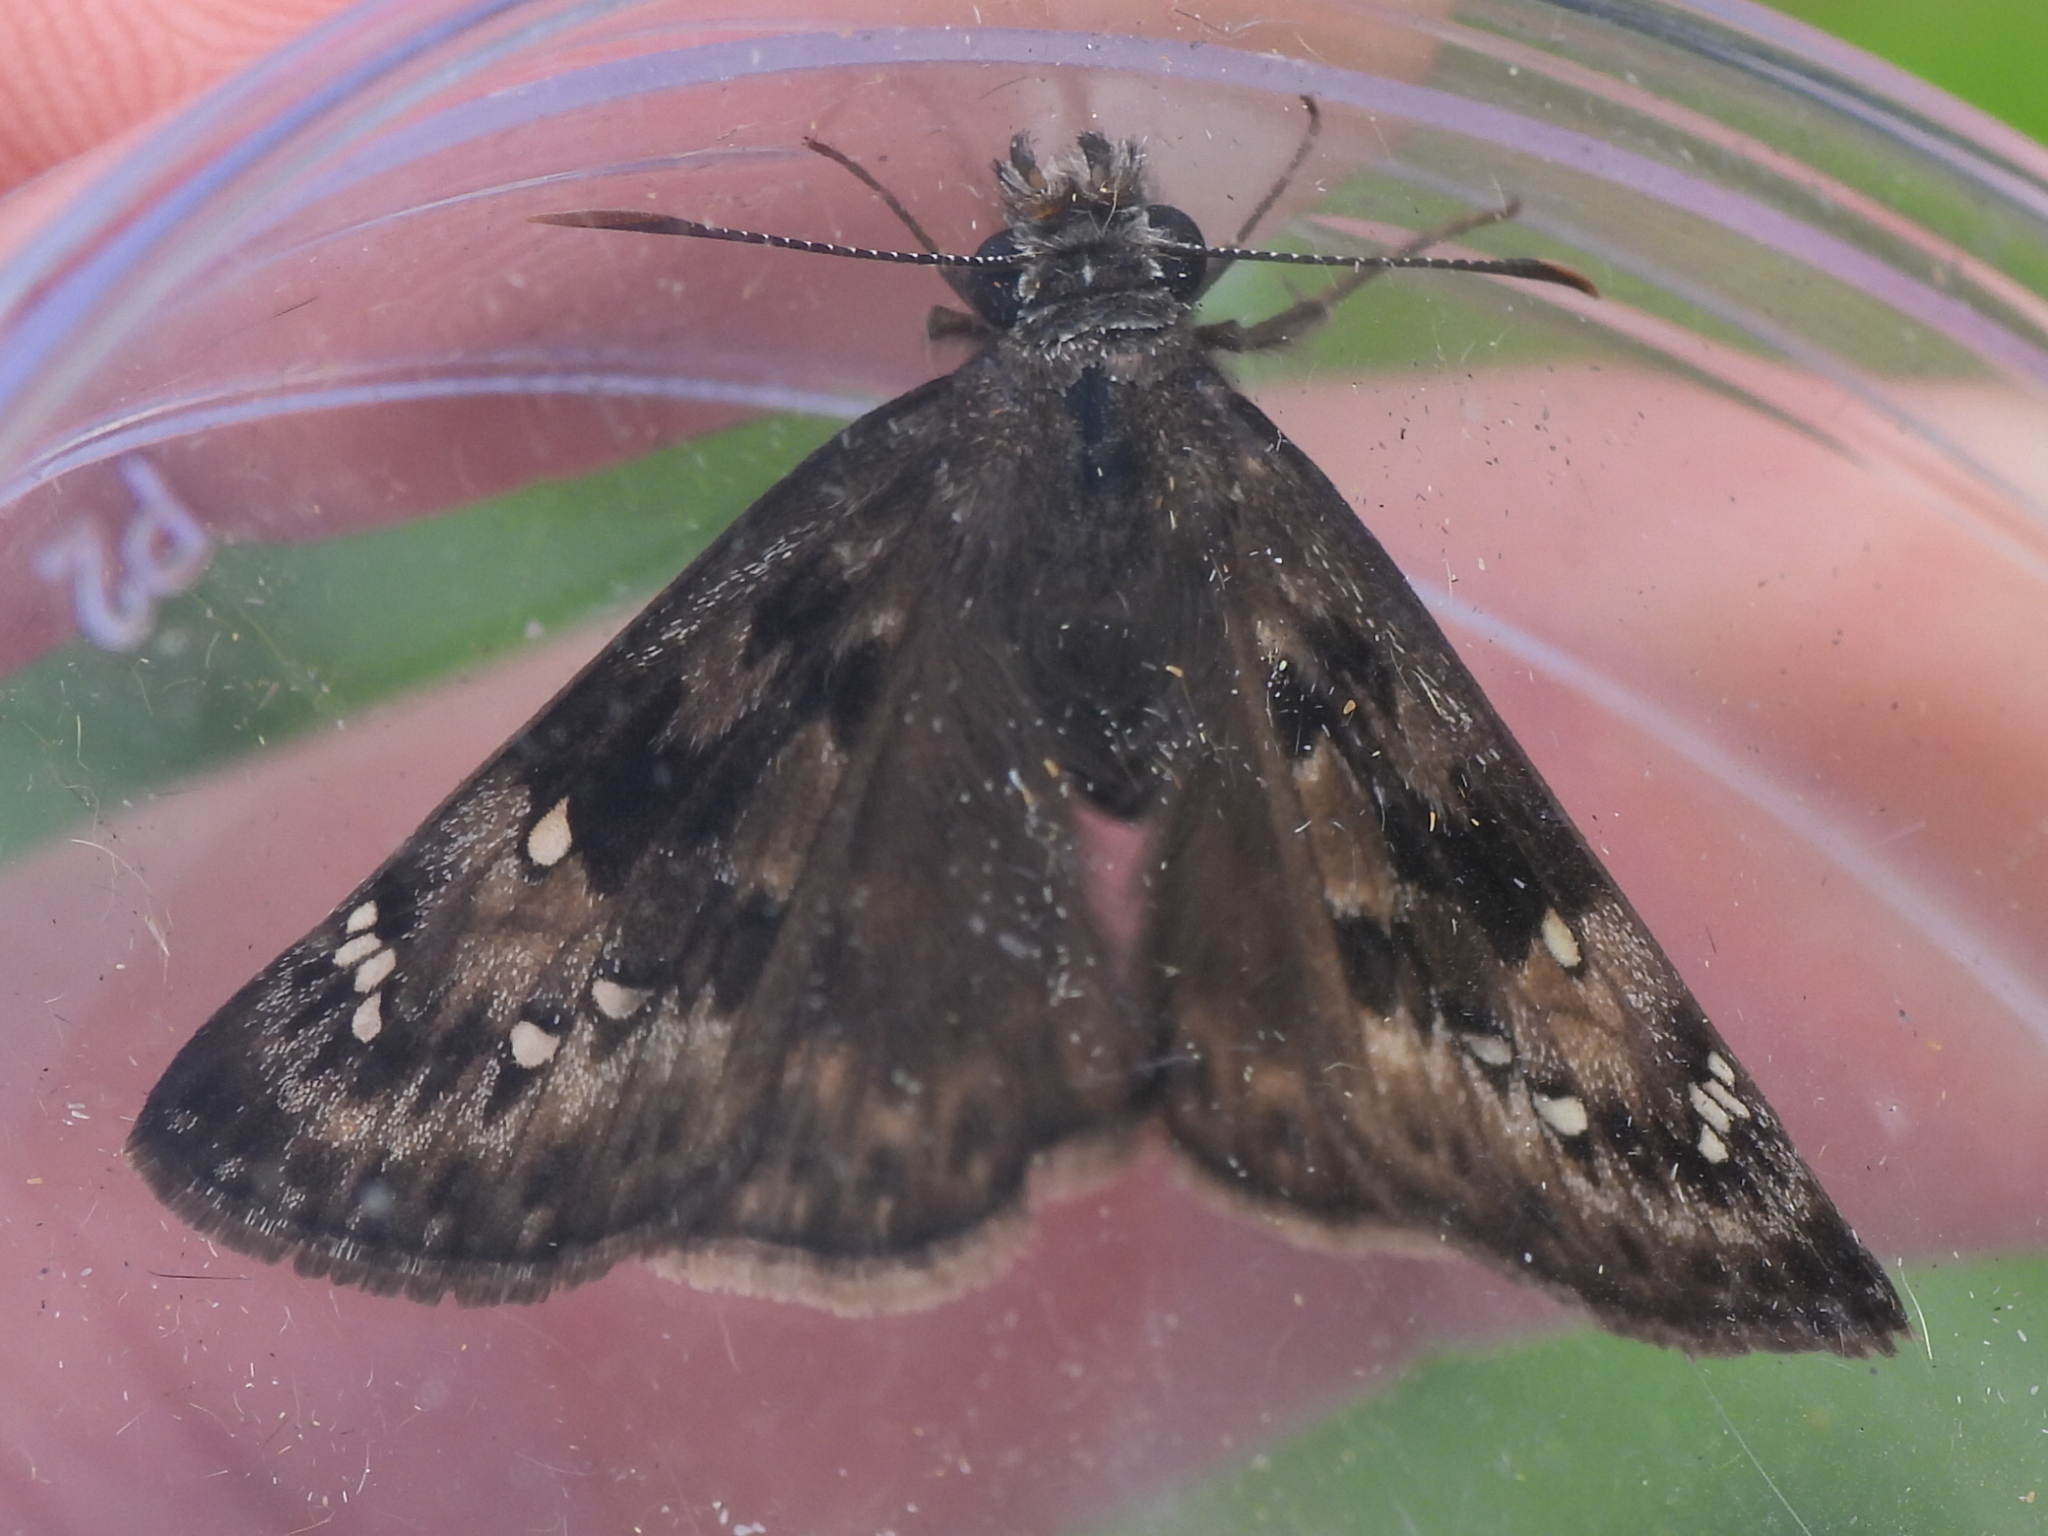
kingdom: Animalia
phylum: Arthropoda
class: Insecta
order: Lepidoptera
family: Hesperiidae
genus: Erynnis
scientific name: Erynnis horatius
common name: Horace's duskywing
